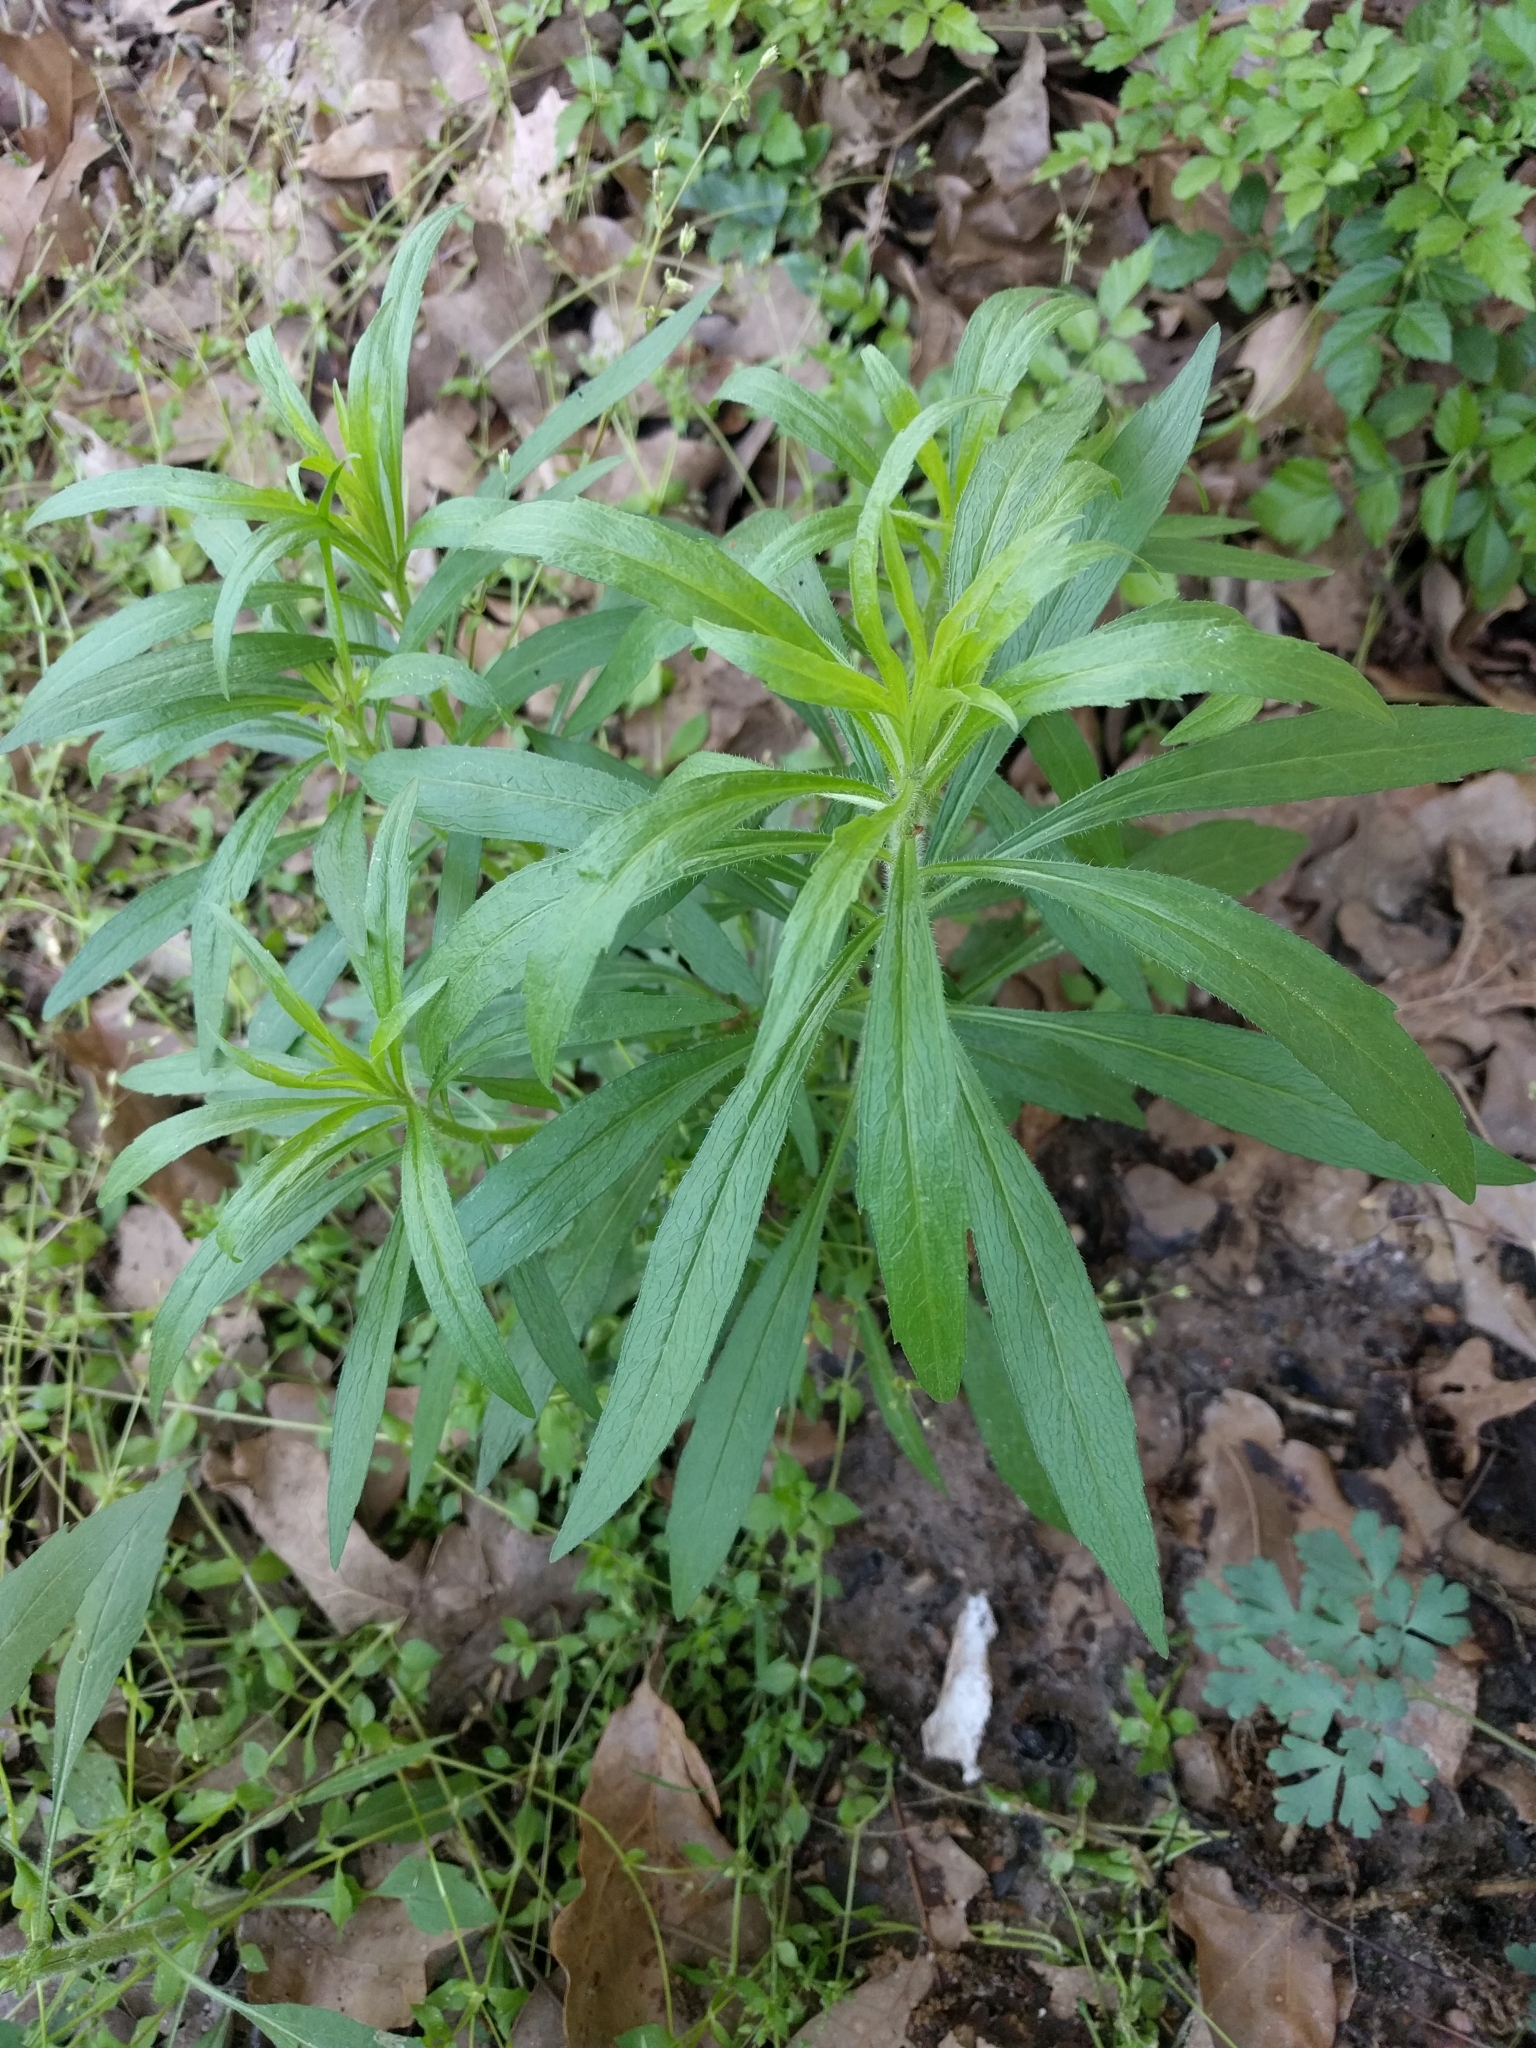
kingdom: Plantae
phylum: Tracheophyta
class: Magnoliopsida
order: Asterales
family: Asteraceae
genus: Erigeron
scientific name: Erigeron canadensis
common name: Canadian fleabane
